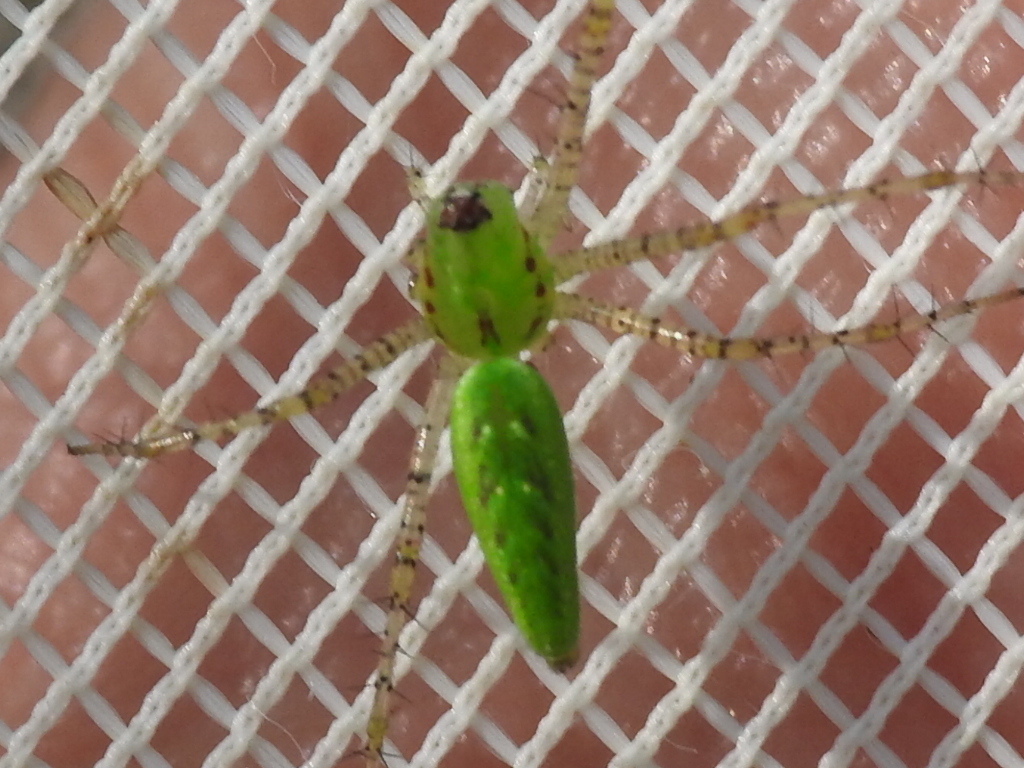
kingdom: Animalia
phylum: Arthropoda
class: Arachnida
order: Araneae
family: Oxyopidae
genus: Peucetia
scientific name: Peucetia viridans
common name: Lynx spiders
